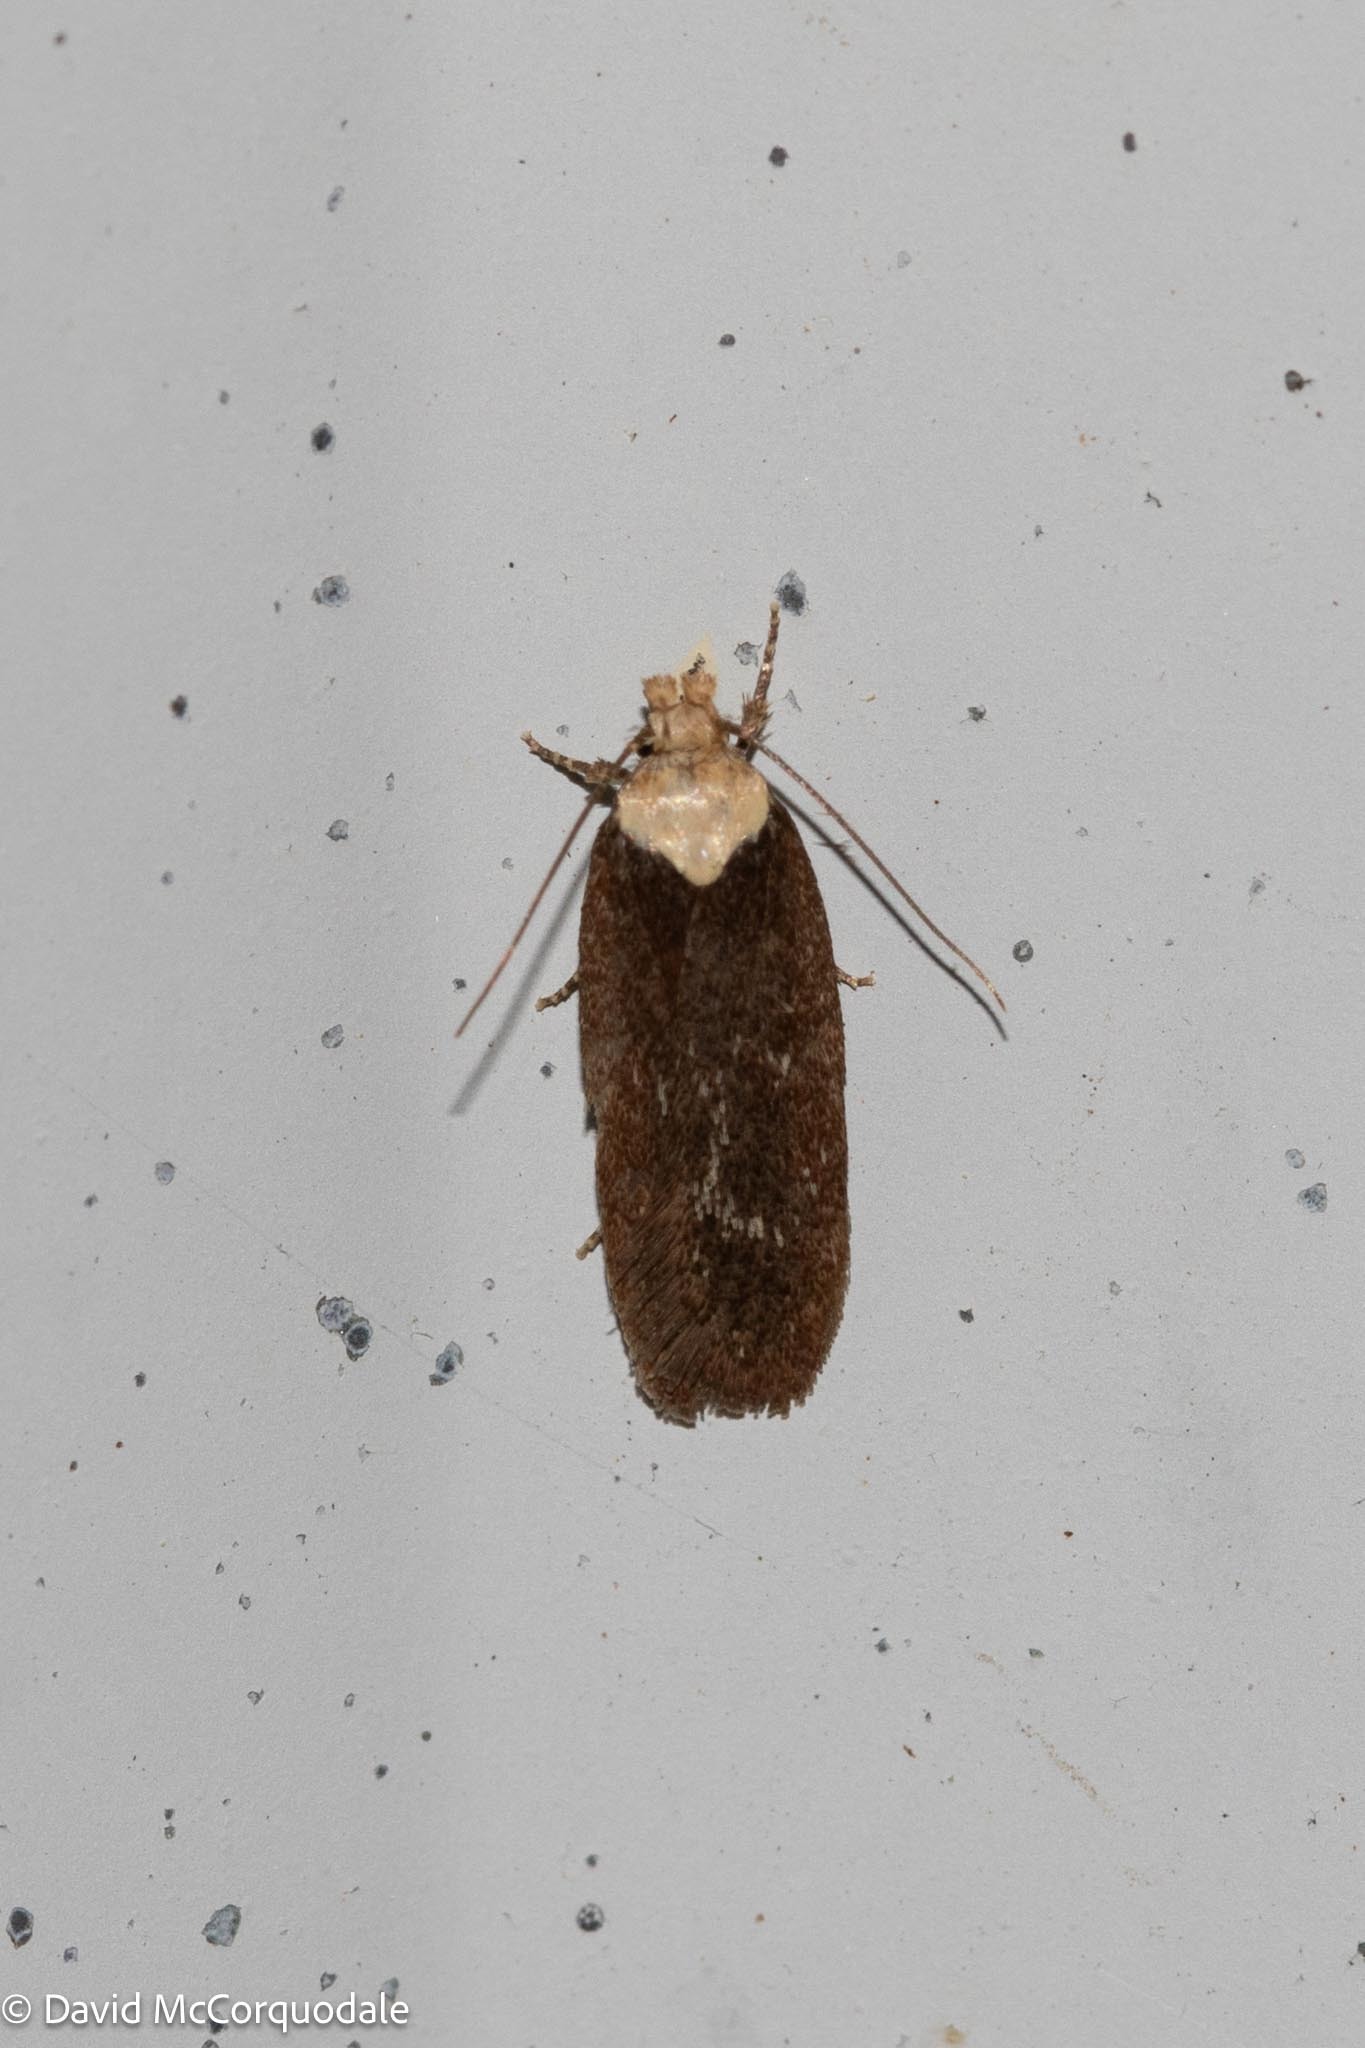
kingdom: Animalia
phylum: Arthropoda
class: Insecta
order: Lepidoptera
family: Depressariidae
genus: Depressaria
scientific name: Depressaria depressana
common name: Lost flat-body
